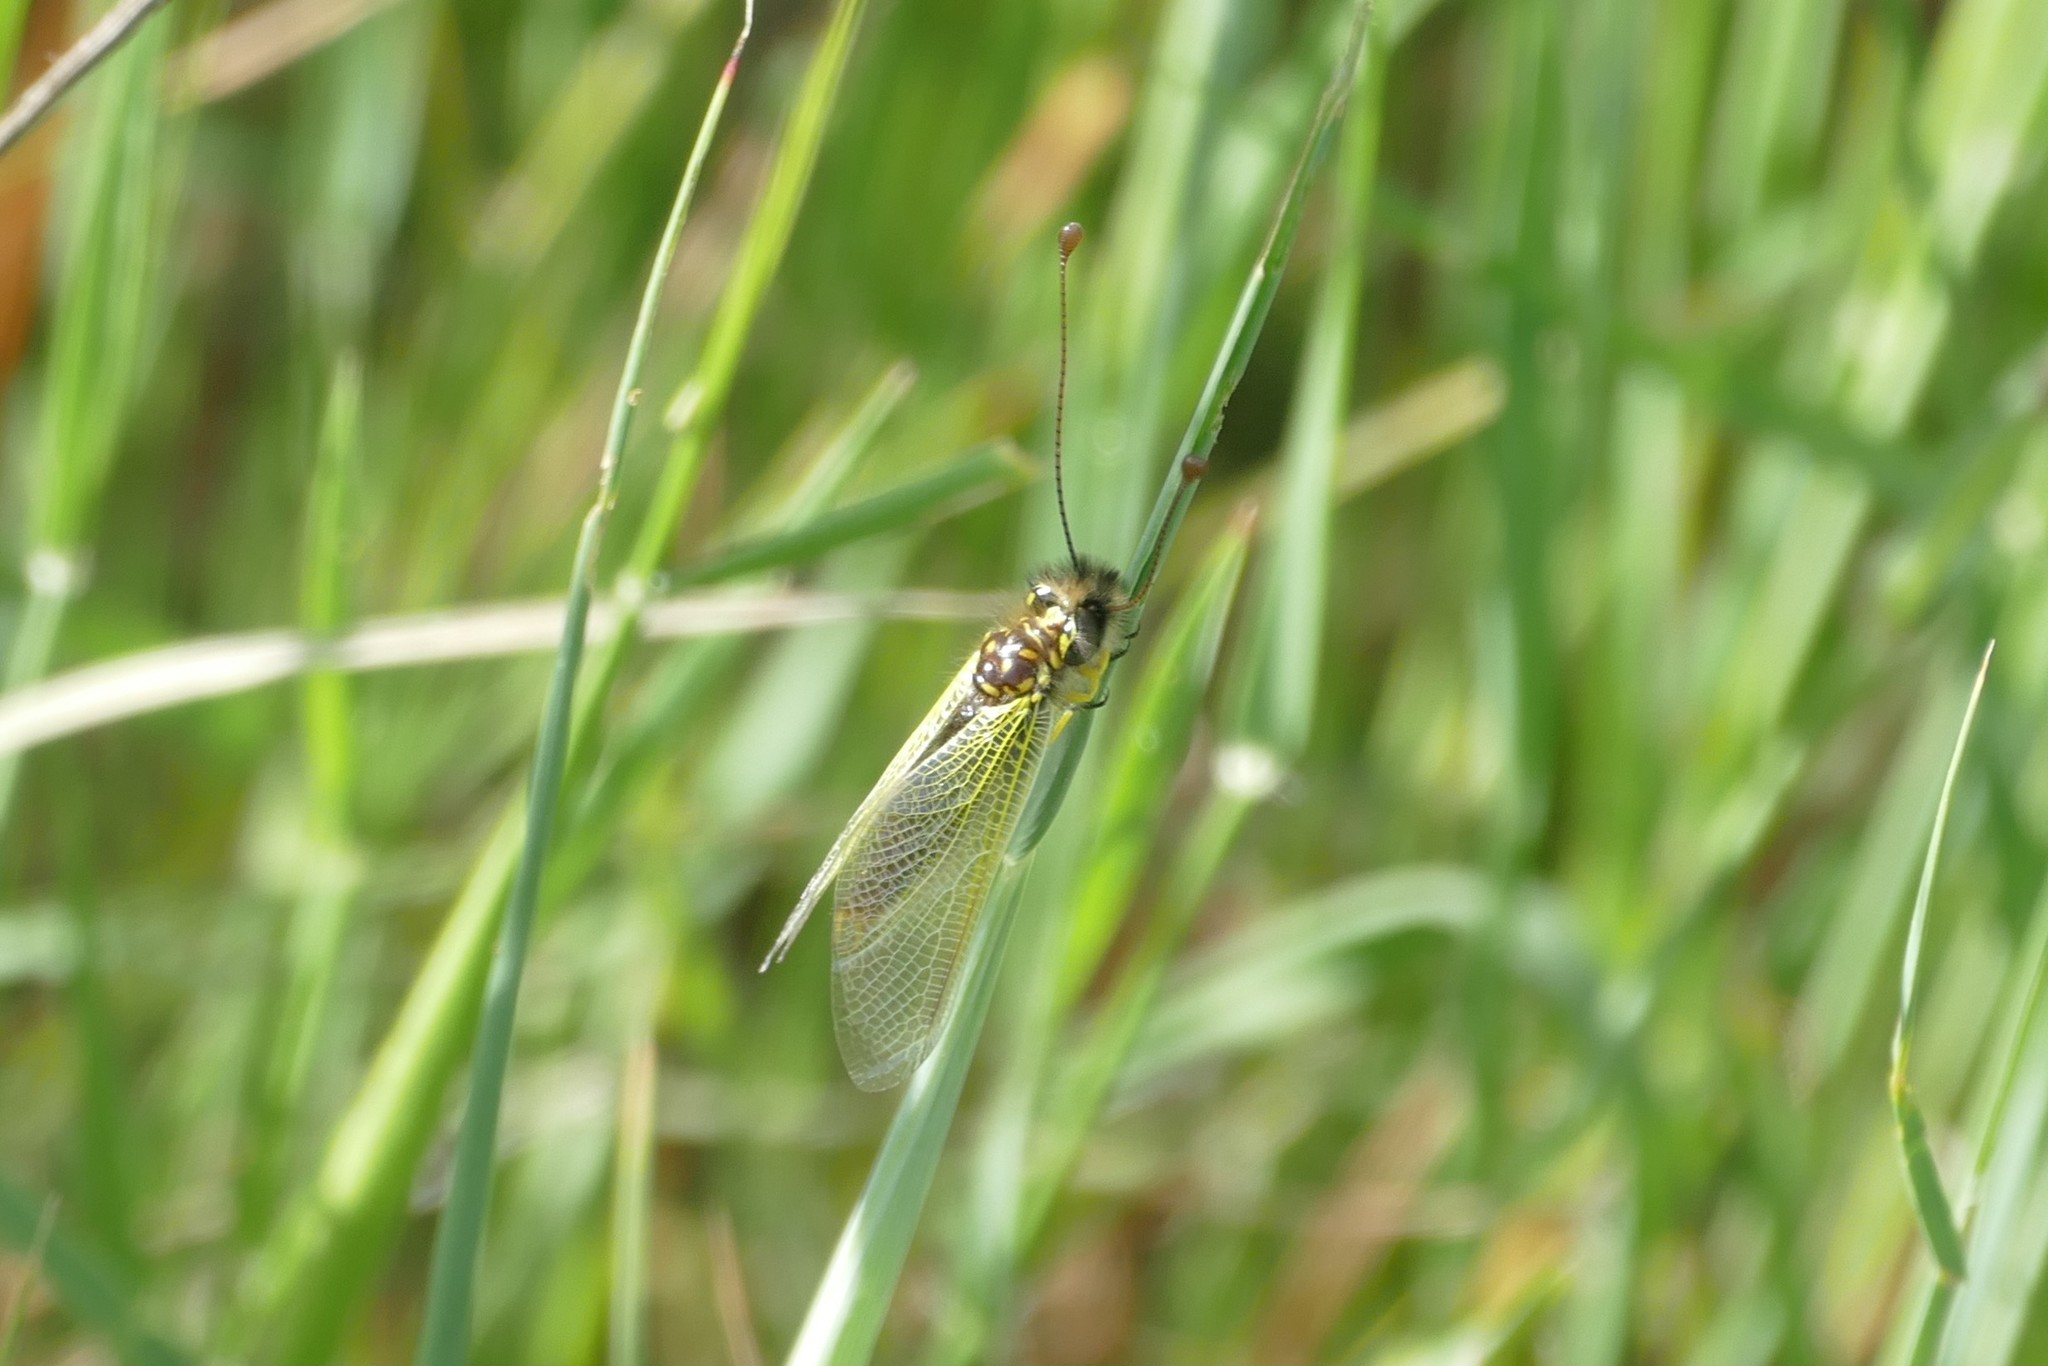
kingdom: Animalia
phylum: Arthropoda
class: Insecta
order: Neuroptera
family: Ascalaphidae
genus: Libelloides
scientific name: Libelloides ictericus
